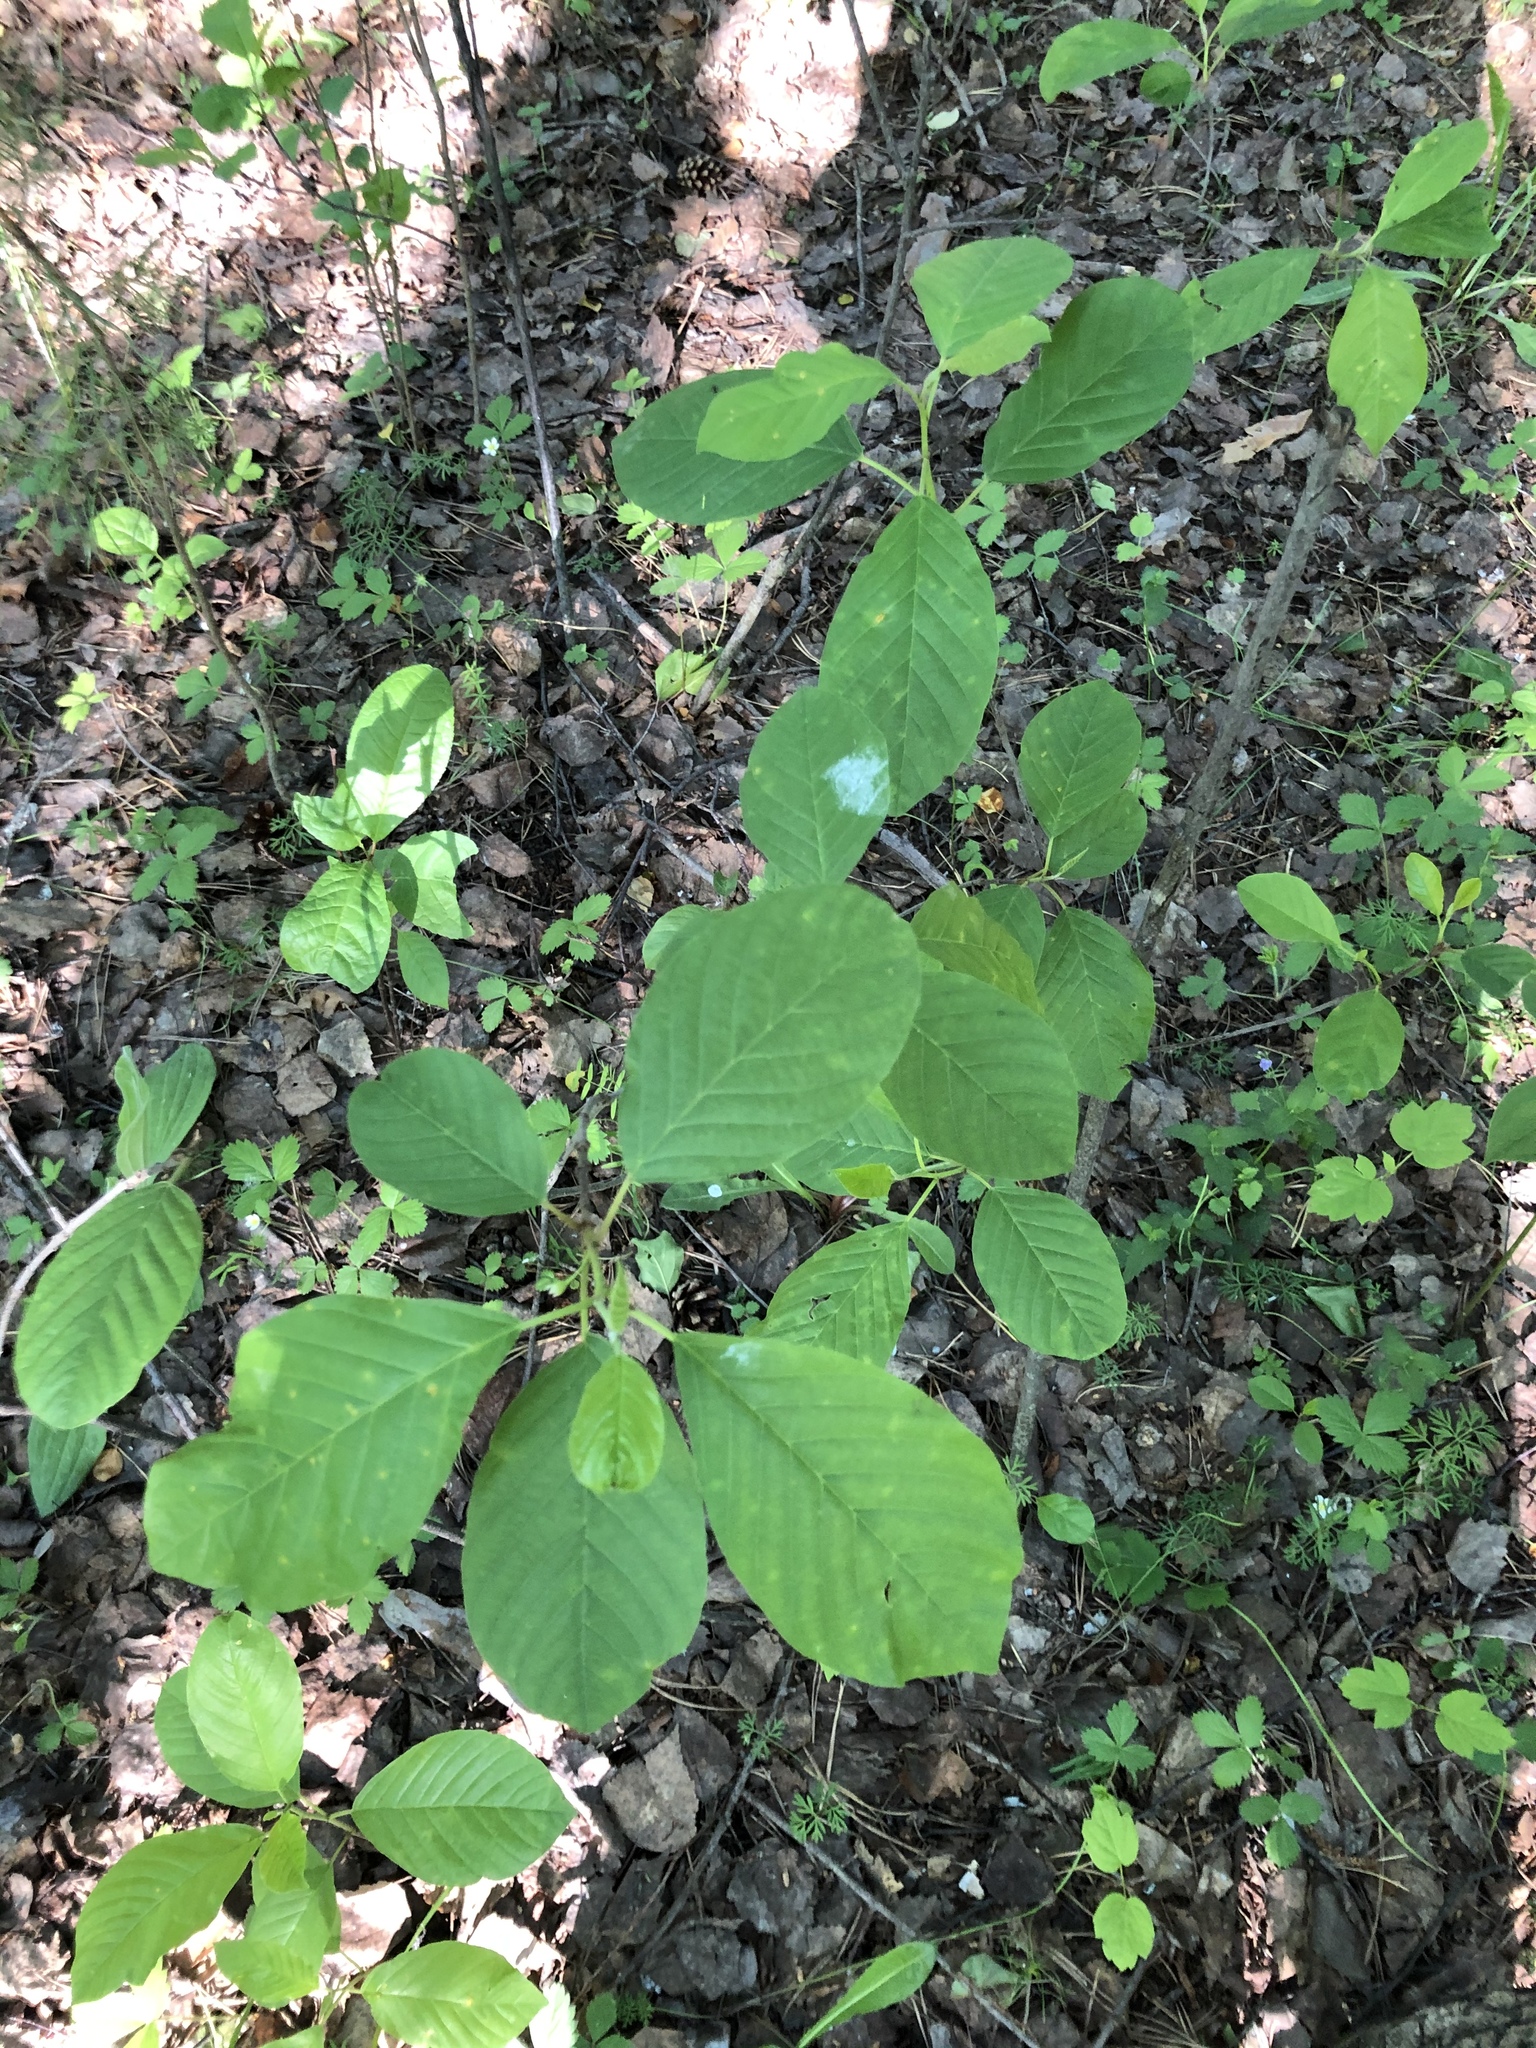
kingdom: Plantae
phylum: Tracheophyta
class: Magnoliopsida
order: Rosales
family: Rhamnaceae
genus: Frangula
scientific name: Frangula alnus
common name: Alder buckthorn
